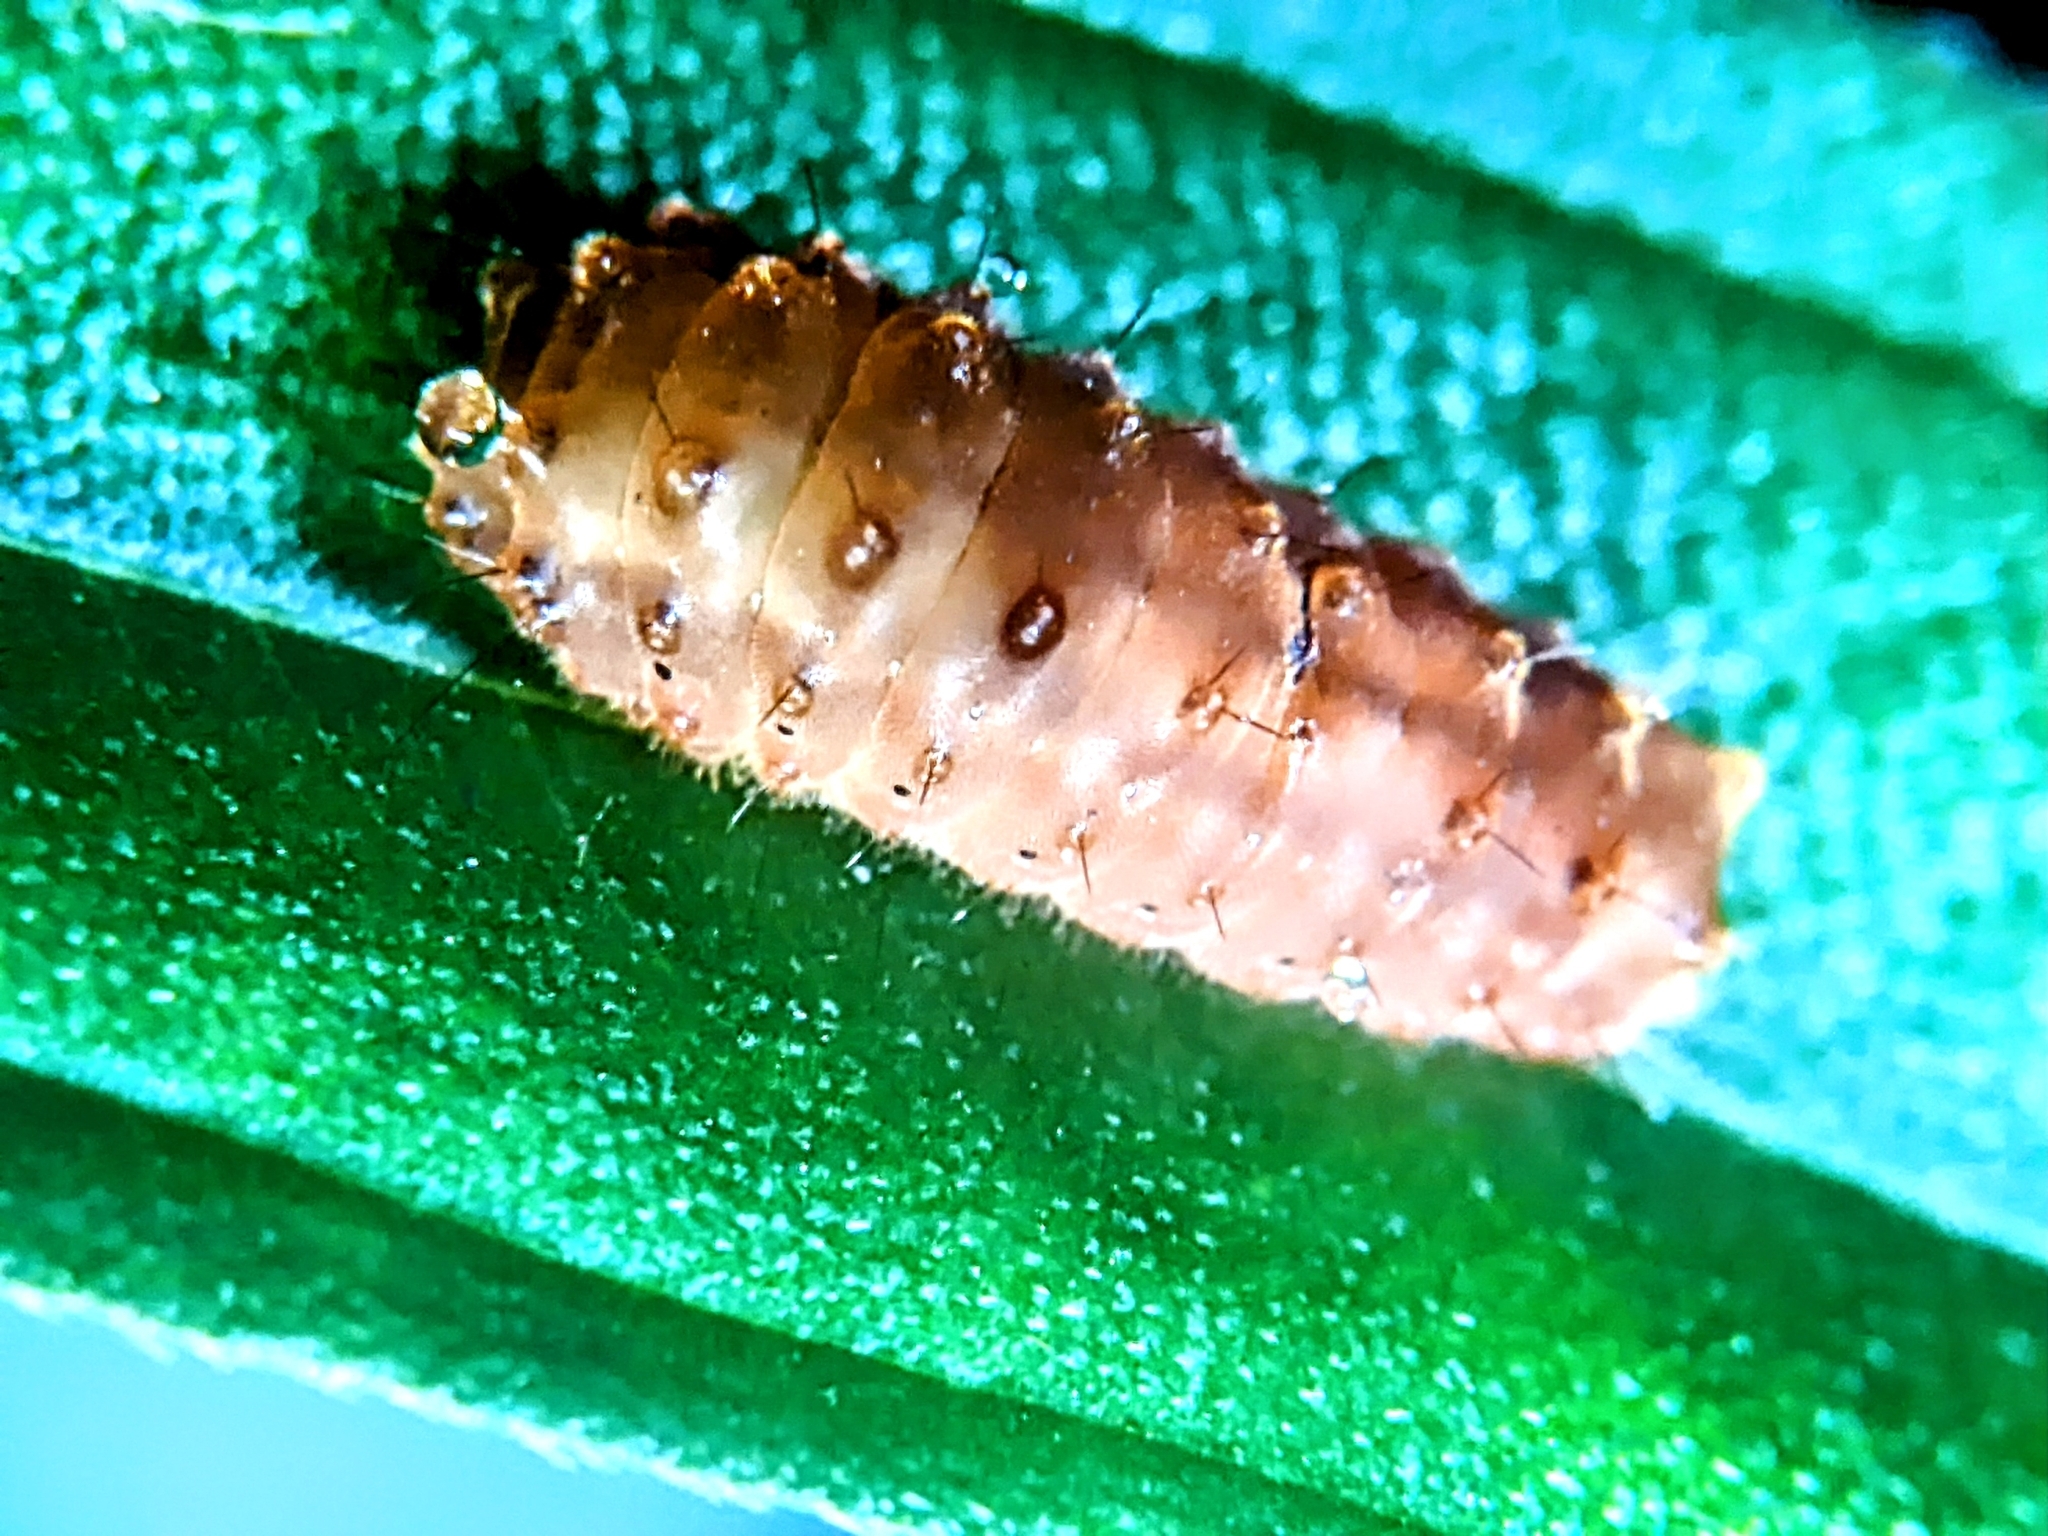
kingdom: Animalia
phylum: Arthropoda
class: Insecta
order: Lepidoptera
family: Zygaenidae
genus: Prosopandrophila
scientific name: Prosopandrophila distincta
